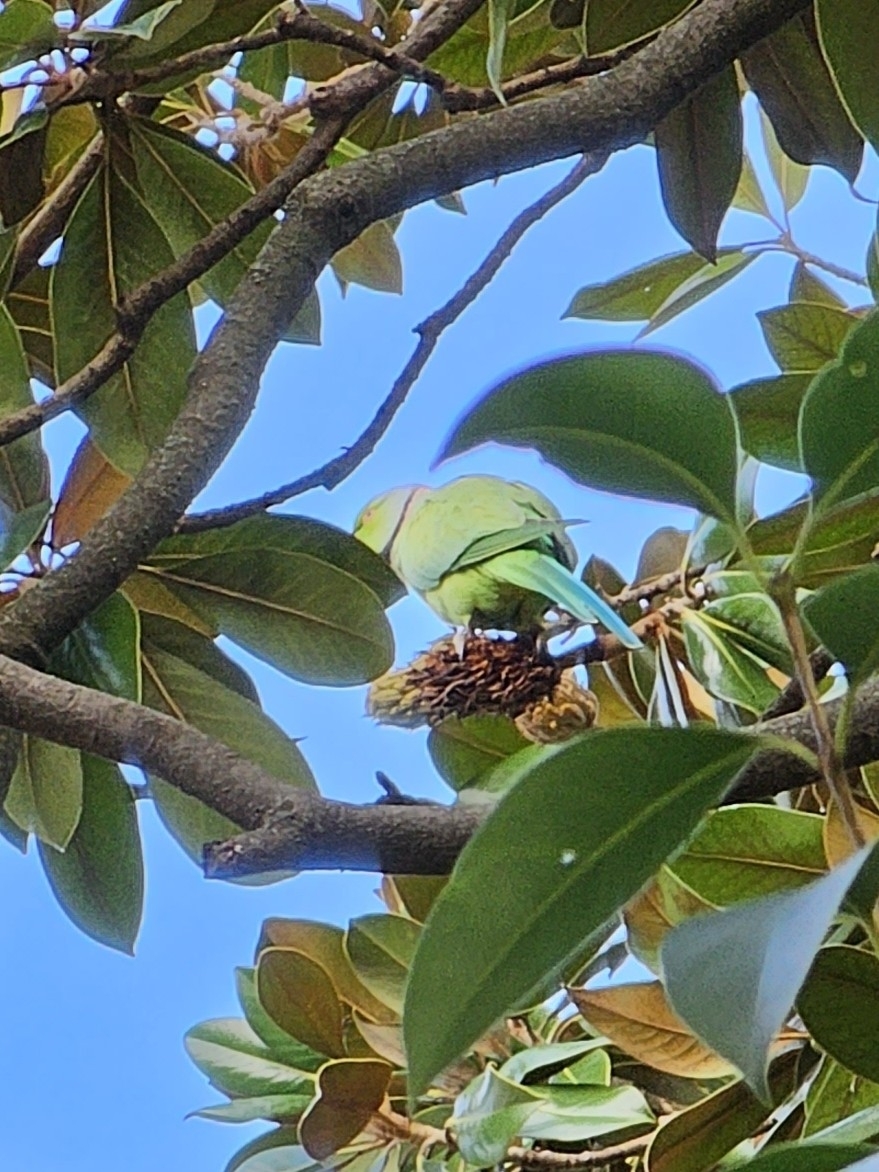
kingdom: Animalia
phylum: Chordata
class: Aves
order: Psittaciformes
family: Psittacidae
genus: Psittacula
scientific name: Psittacula krameri
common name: Rose-ringed parakeet
